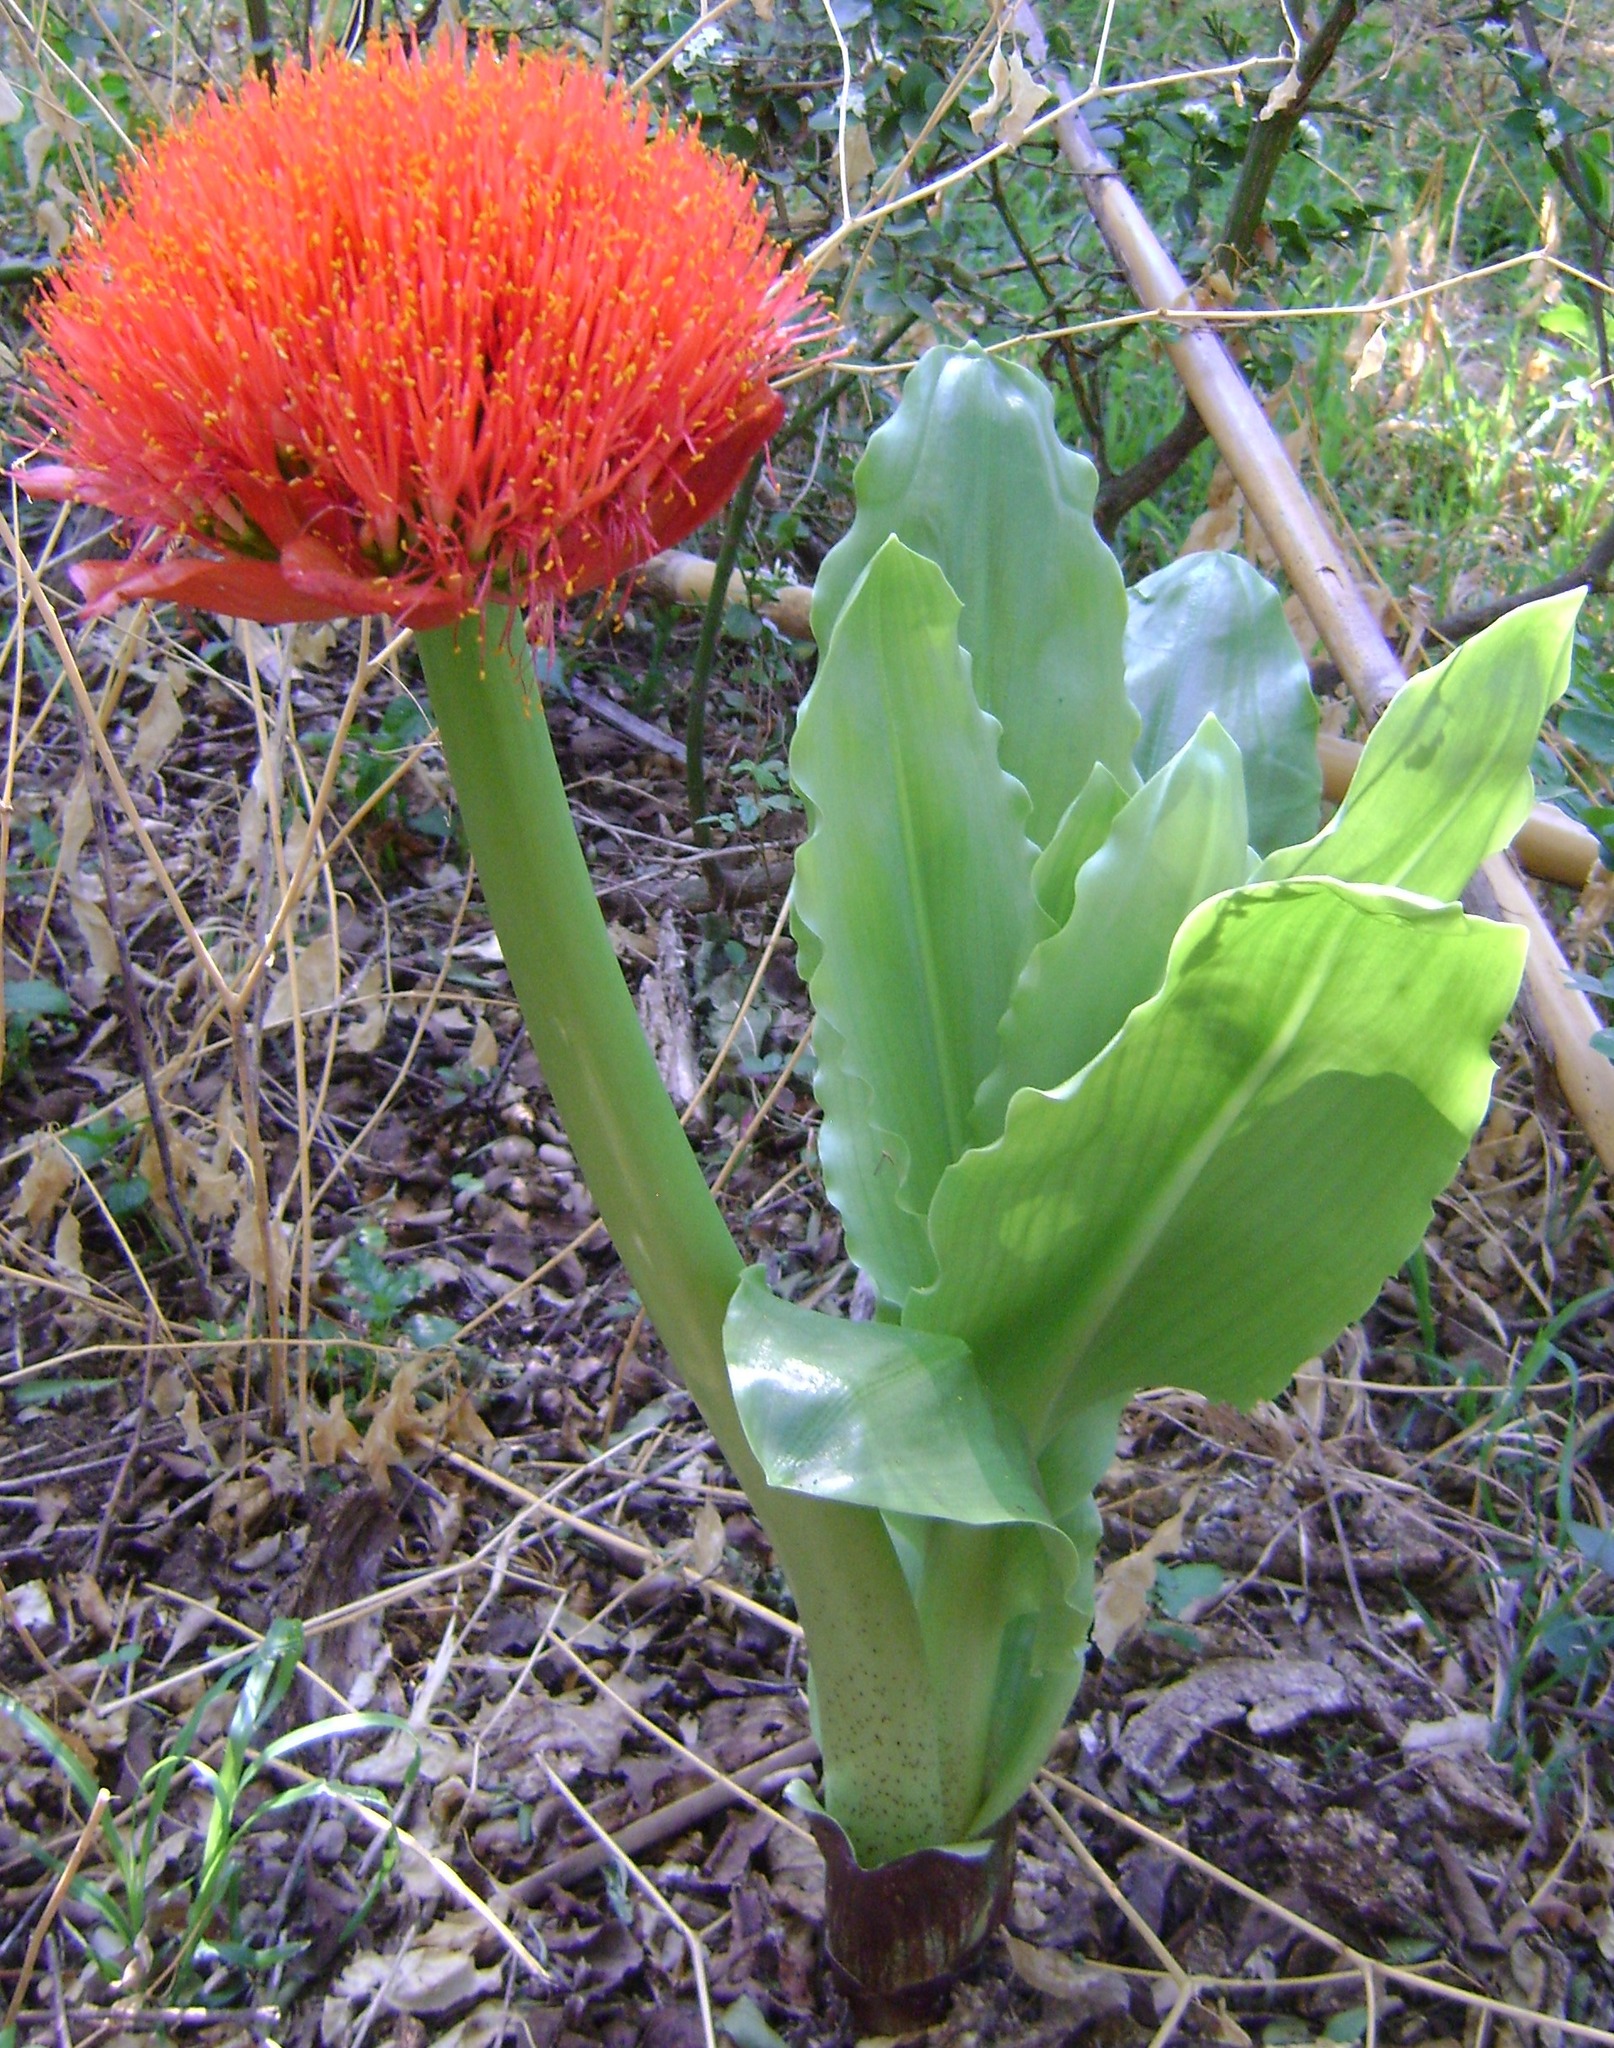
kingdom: Plantae
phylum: Tracheophyta
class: Liliopsida
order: Asparagales
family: Amaryllidaceae
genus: Scadoxus
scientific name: Scadoxus puniceus
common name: Royal-paintbrush
